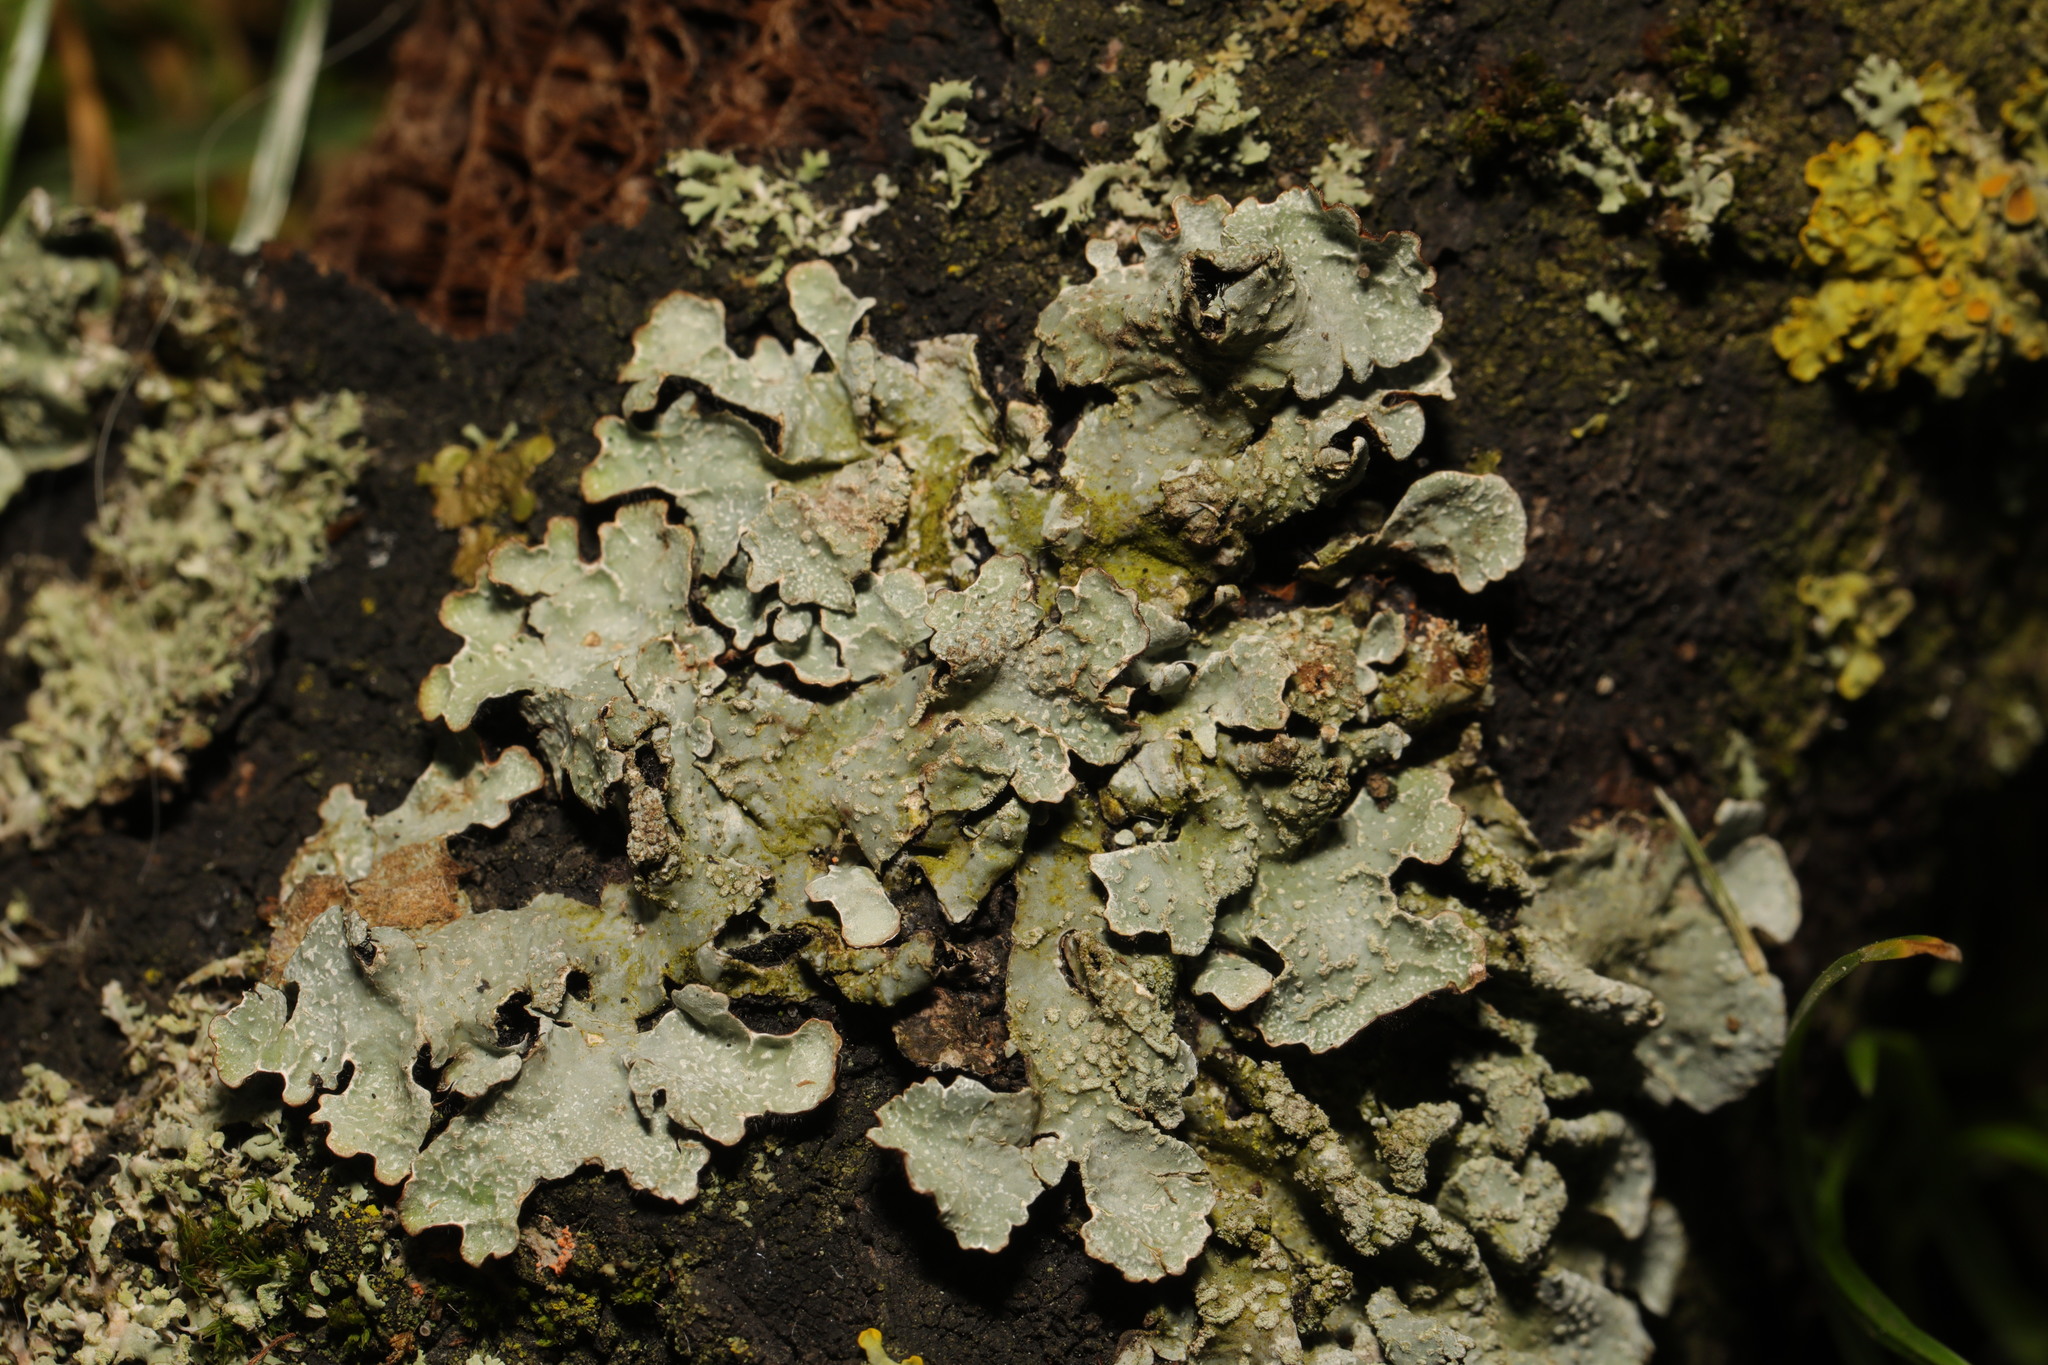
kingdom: Fungi
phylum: Ascomycota
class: Lecanoromycetes
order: Lecanorales
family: Parmeliaceae
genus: Parmelia
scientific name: Parmelia sulcata
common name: Netted shield lichen
